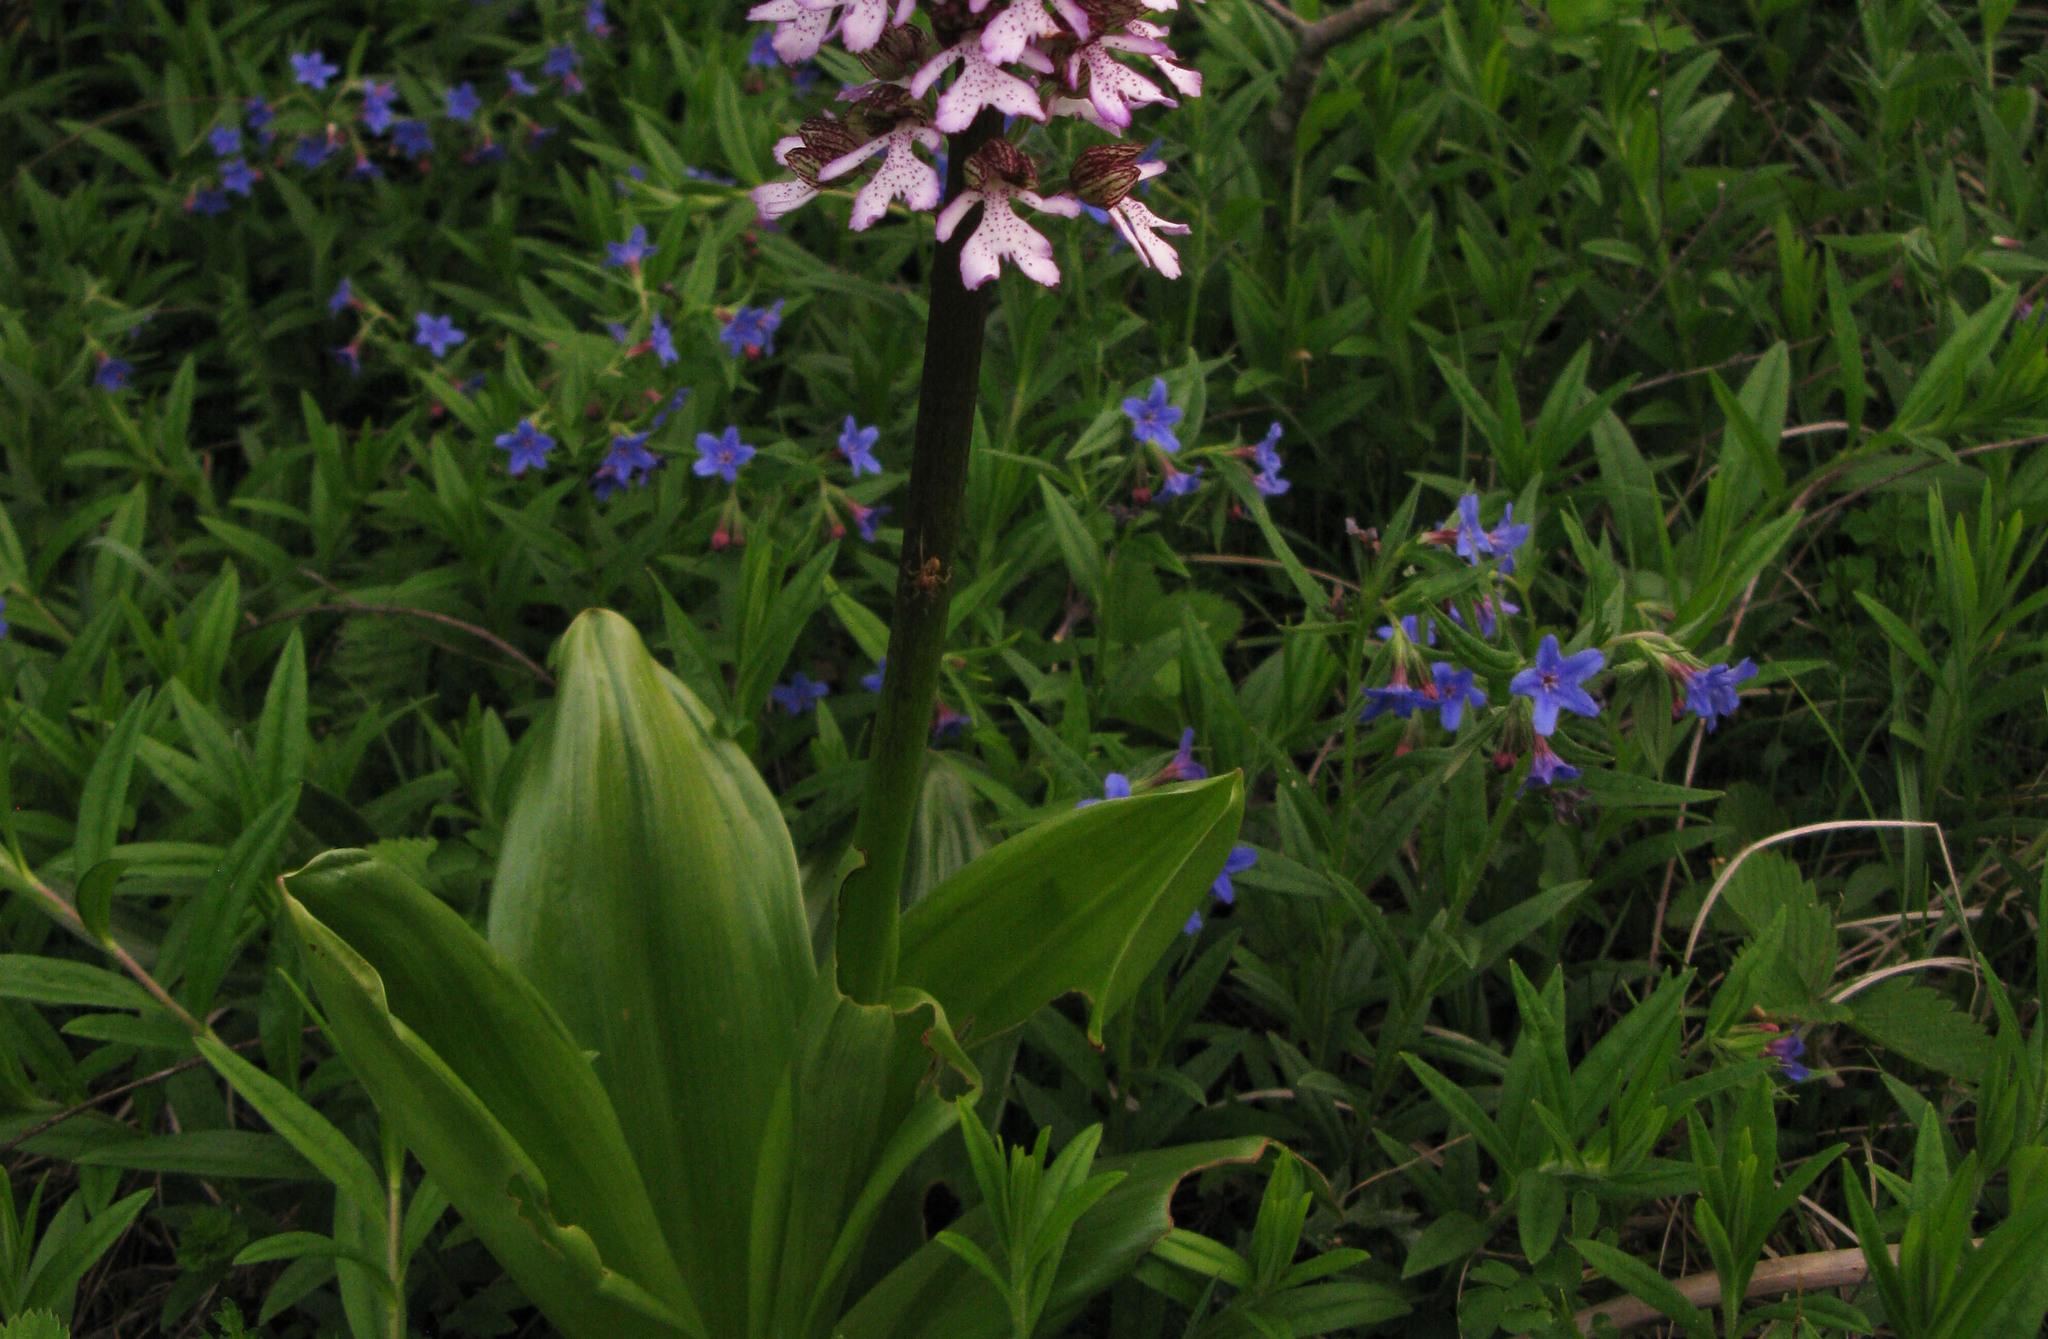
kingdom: Plantae
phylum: Tracheophyta
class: Magnoliopsida
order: Boraginales
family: Boraginaceae
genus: Aegonychon
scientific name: Aegonychon purpurocaeruleum
